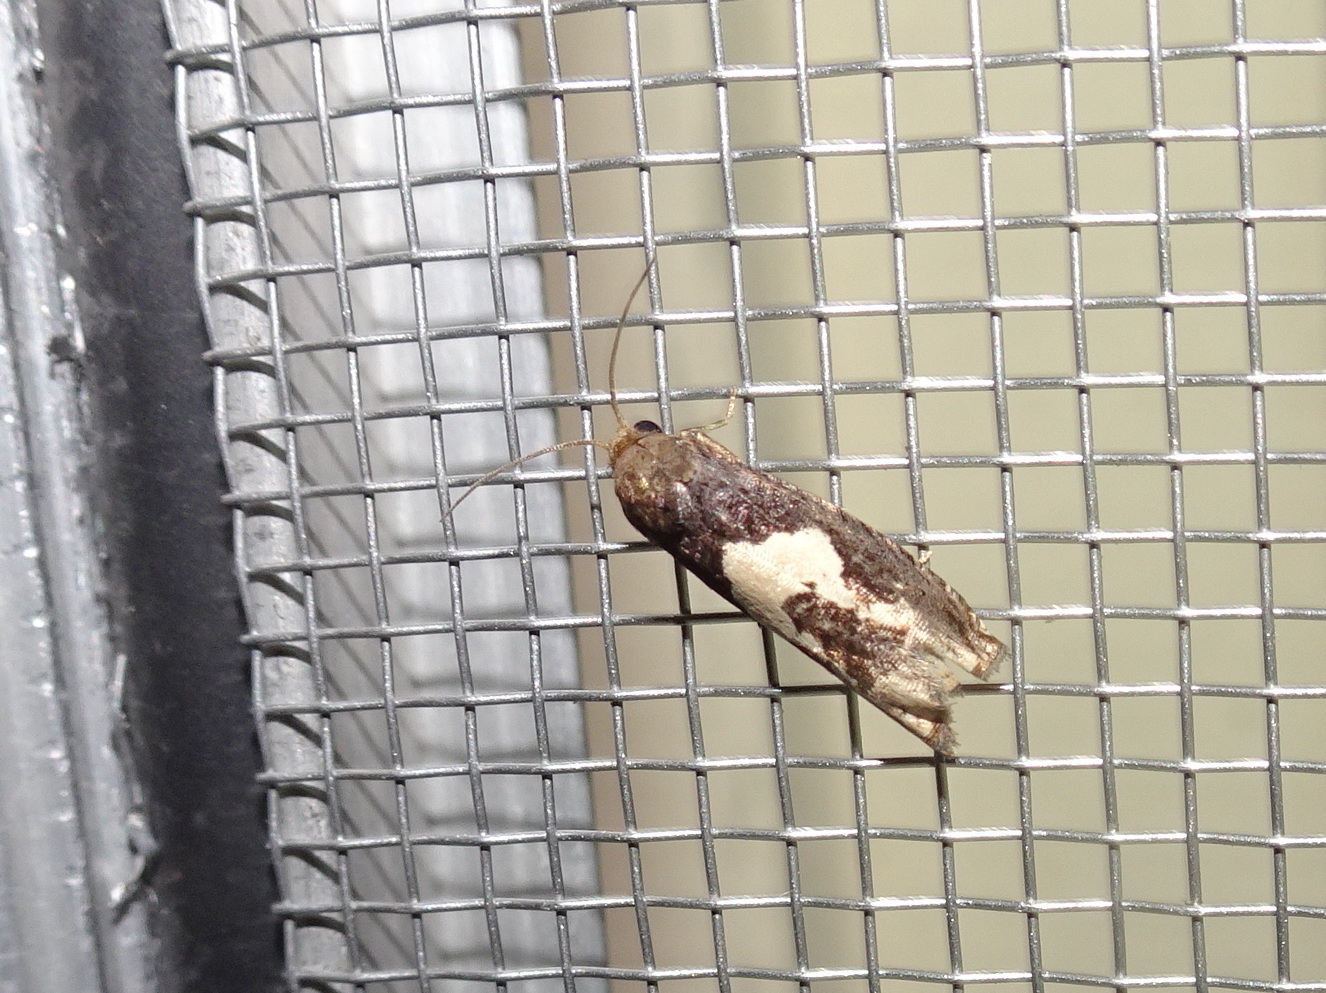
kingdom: Animalia
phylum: Arthropoda
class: Insecta
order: Lepidoptera
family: Tortricidae
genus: Epiblema
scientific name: Epiblema otiosana
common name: Bidens borer moth
